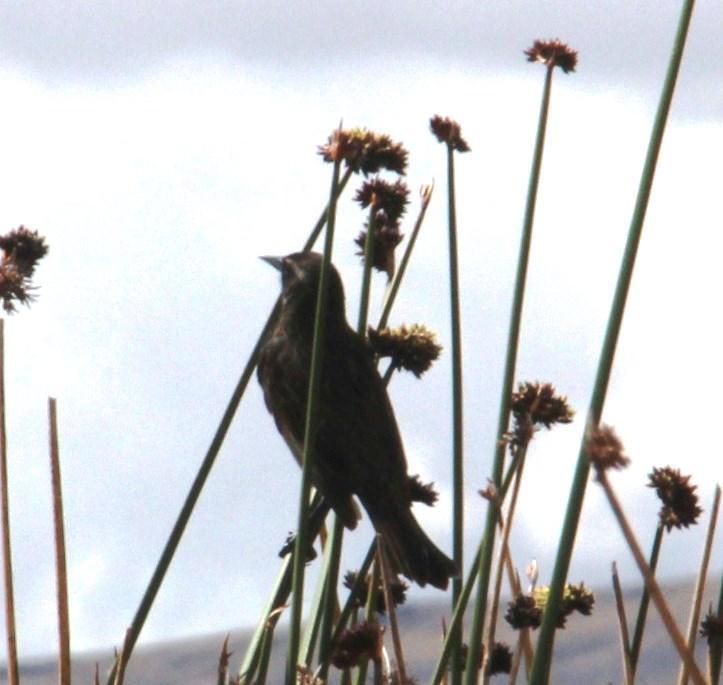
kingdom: Animalia
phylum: Chordata
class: Aves
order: Passeriformes
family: Icteridae
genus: Agelasticus
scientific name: Agelasticus thilius
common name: Yellow-winged blackbird
